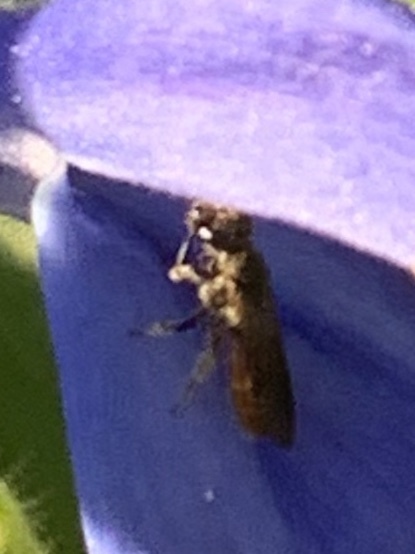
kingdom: Animalia
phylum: Arthropoda
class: Insecta
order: Hymenoptera
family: Halictidae
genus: Lasioglossum
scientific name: Lasioglossum ovaliceps
